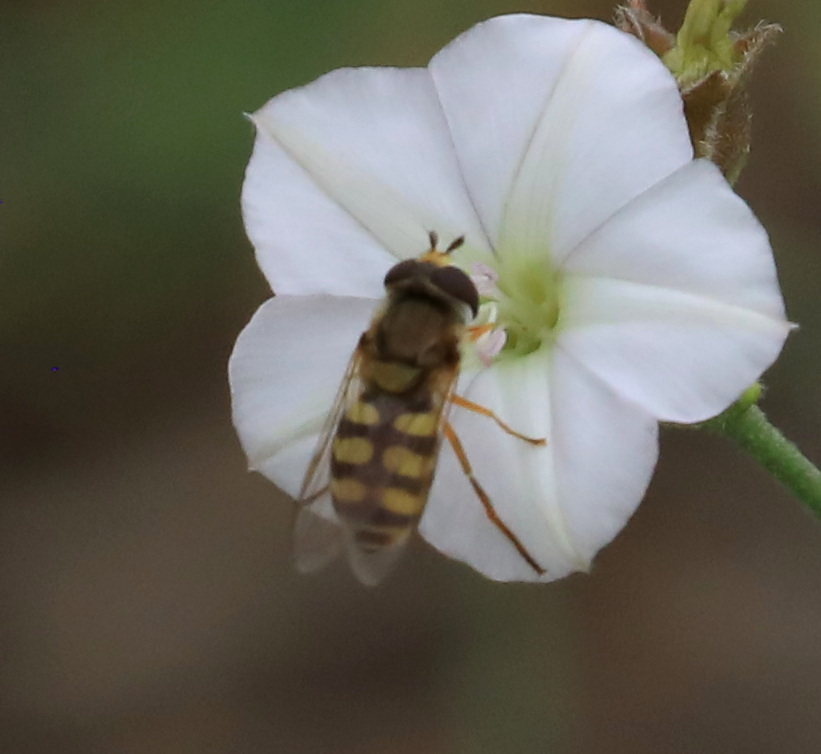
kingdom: Animalia
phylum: Arthropoda
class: Insecta
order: Diptera
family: Syrphidae
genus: Eupeodes
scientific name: Eupeodes corollae
